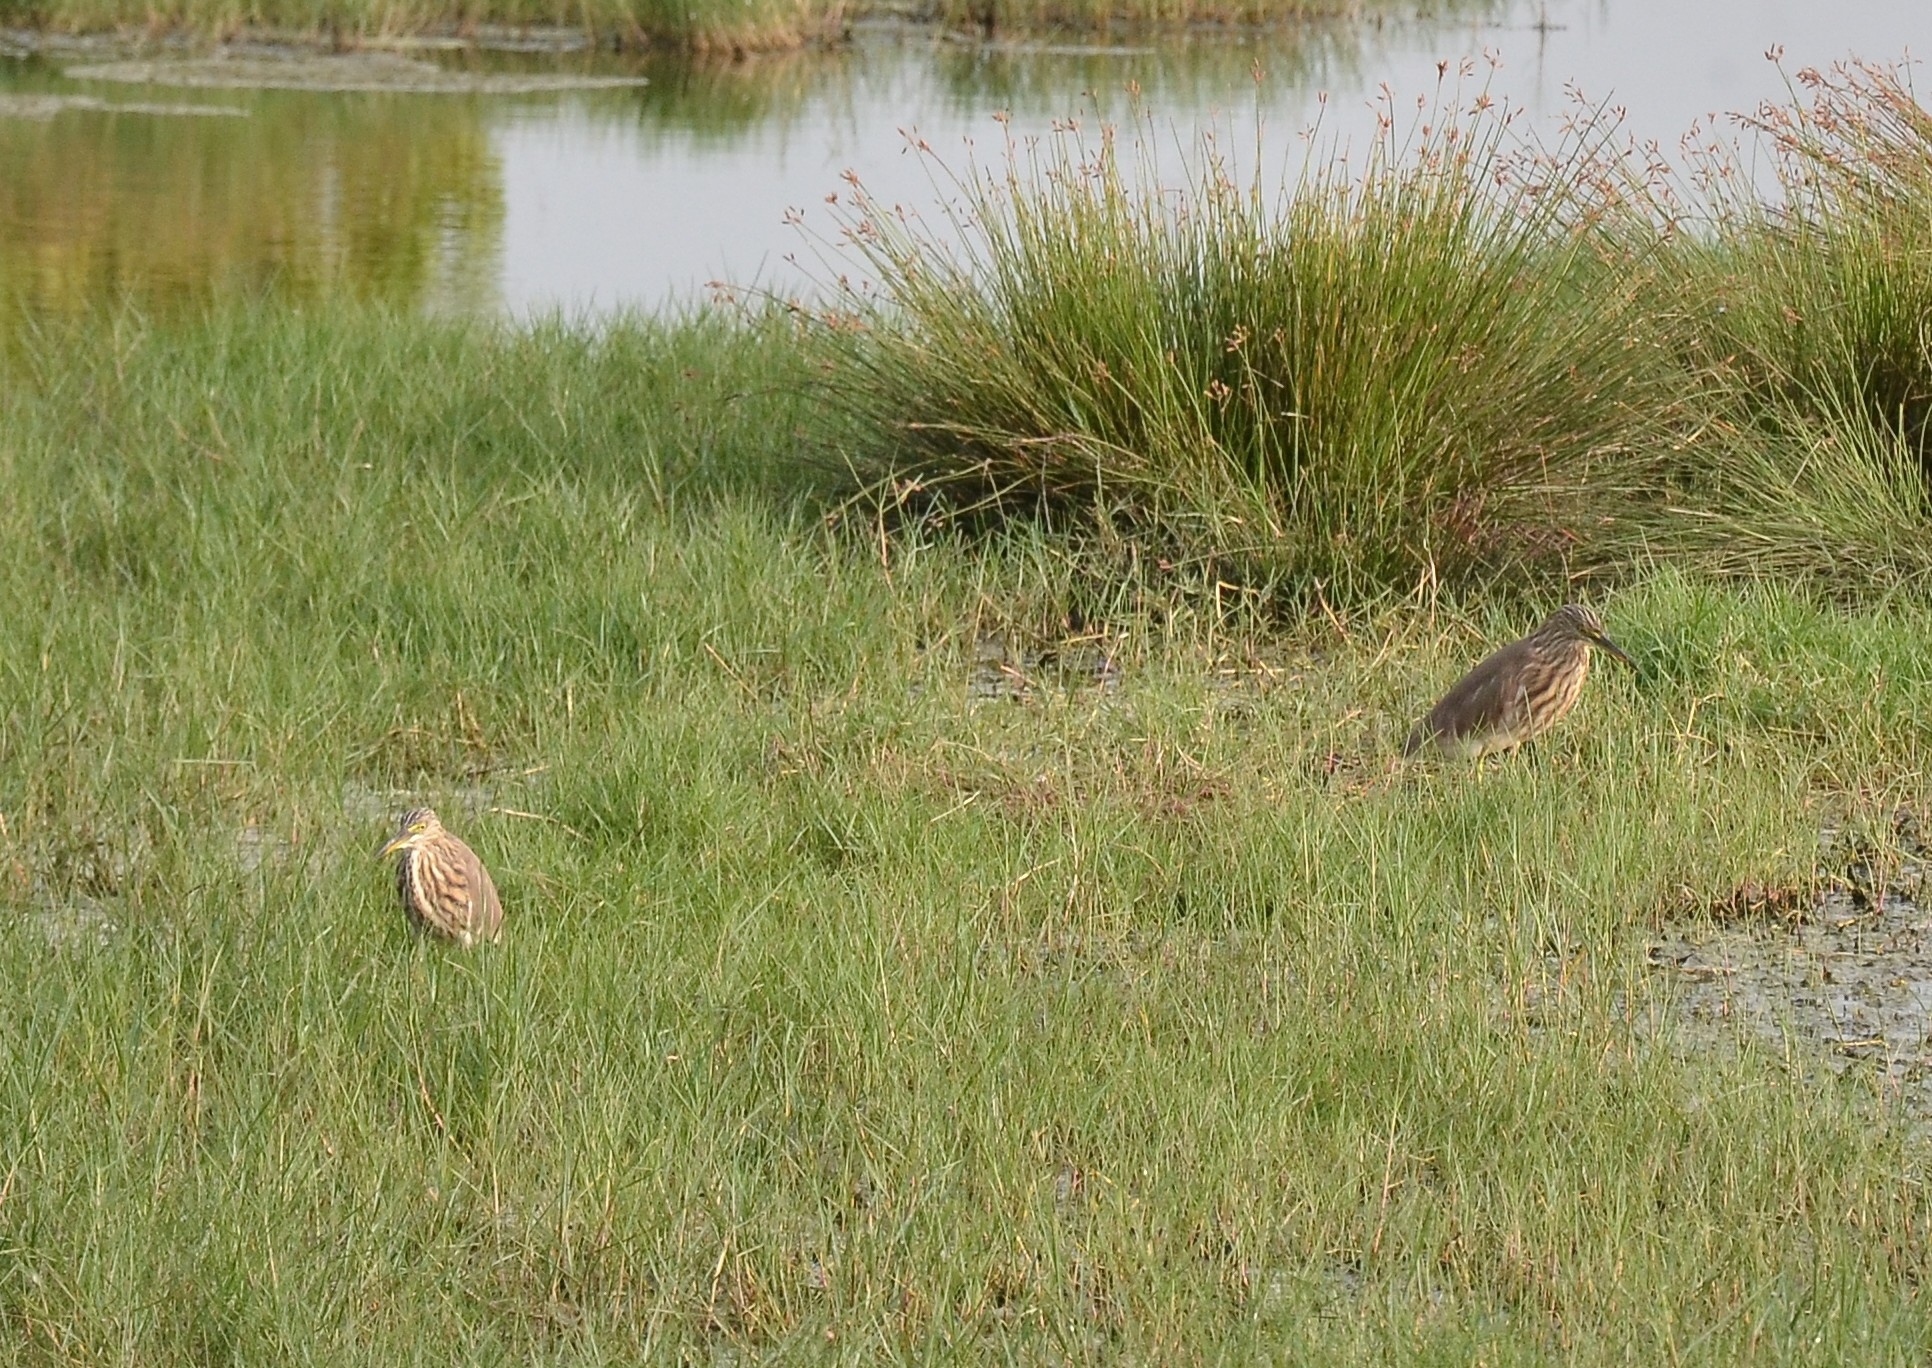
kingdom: Animalia
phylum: Chordata
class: Aves
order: Pelecaniformes
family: Ardeidae
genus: Ardeola
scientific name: Ardeola grayii
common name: Indian pond heron
